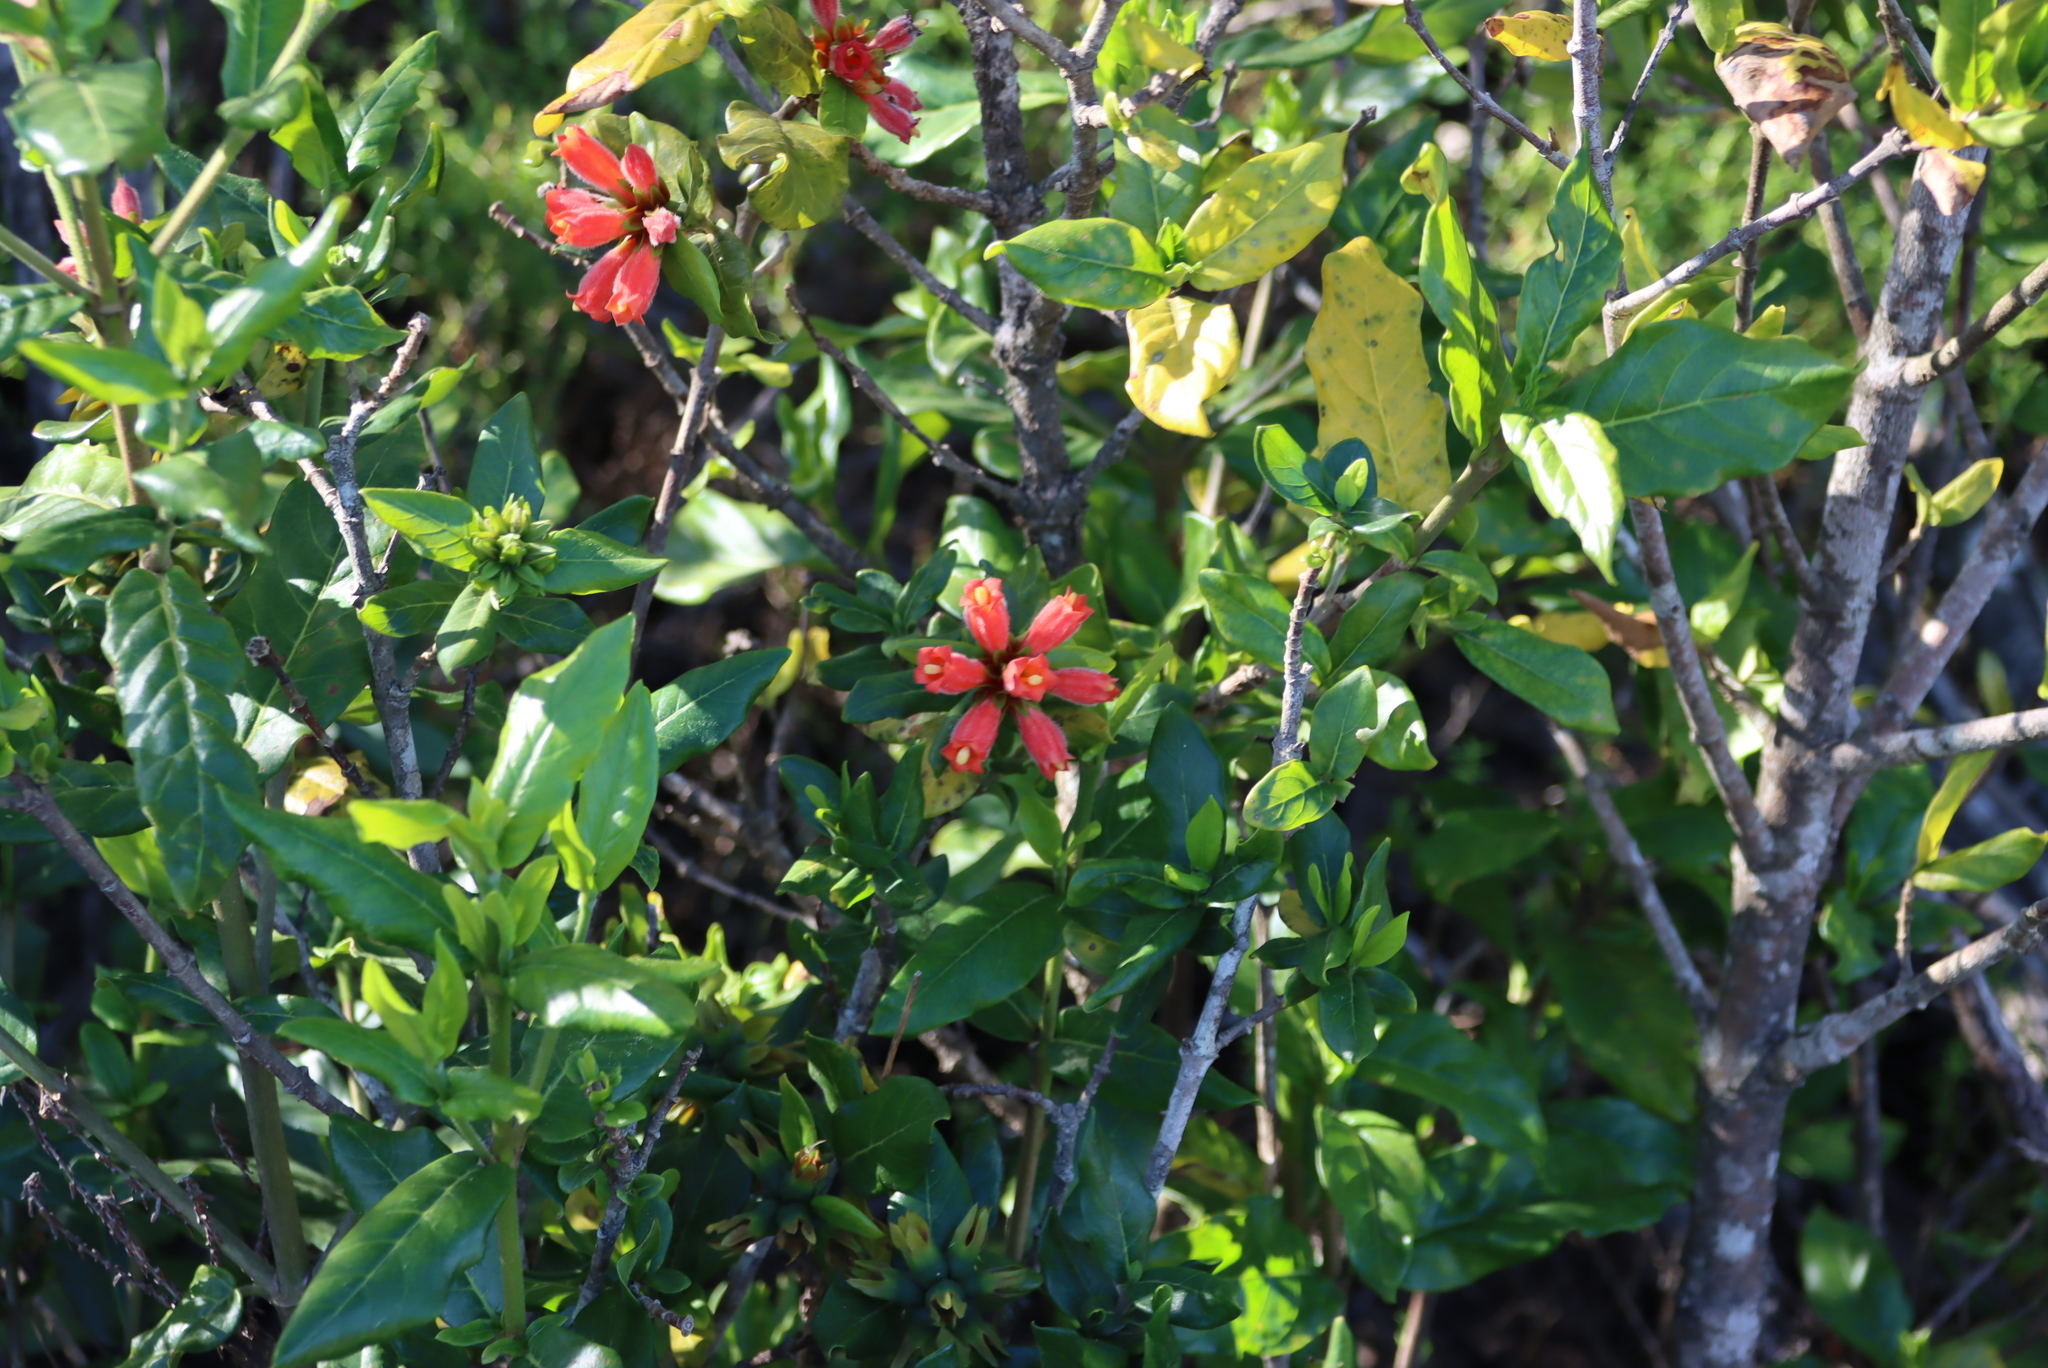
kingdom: Plantae
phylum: Tracheophyta
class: Magnoliopsida
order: Gentianales
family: Rubiaceae
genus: Burchellia
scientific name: Burchellia bubalina
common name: Wild pomegranate
